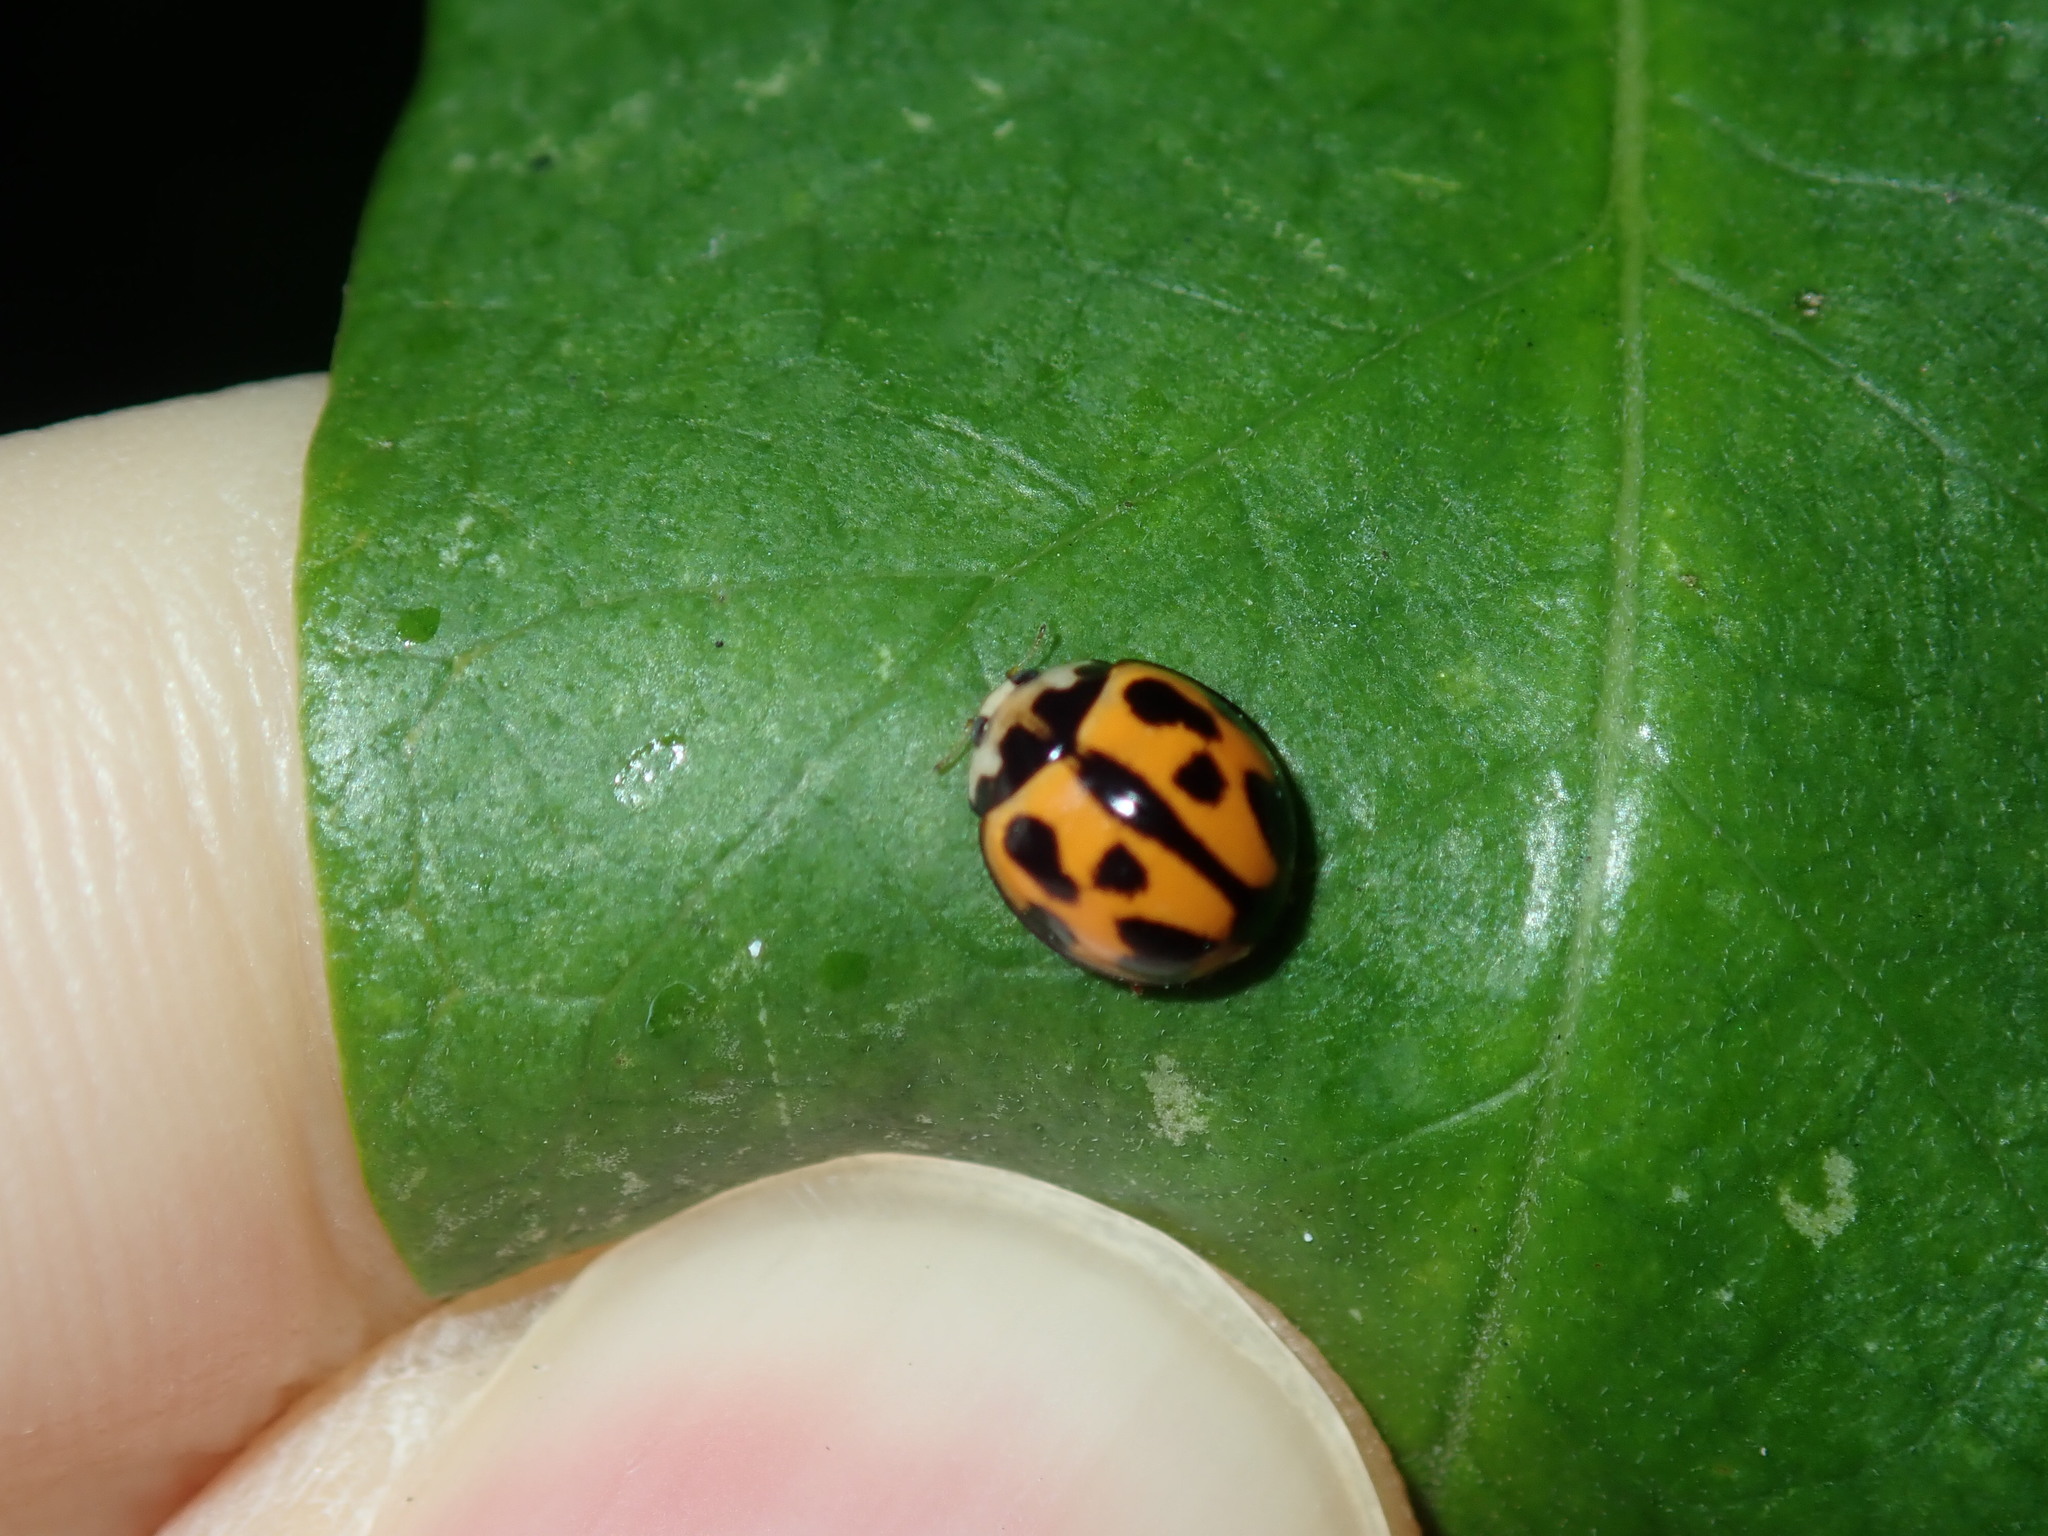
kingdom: Animalia
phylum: Arthropoda
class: Insecta
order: Coleoptera
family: Coccinellidae
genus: Coelophora
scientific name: Coelophora inaequalis
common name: Common australian lady beetle
